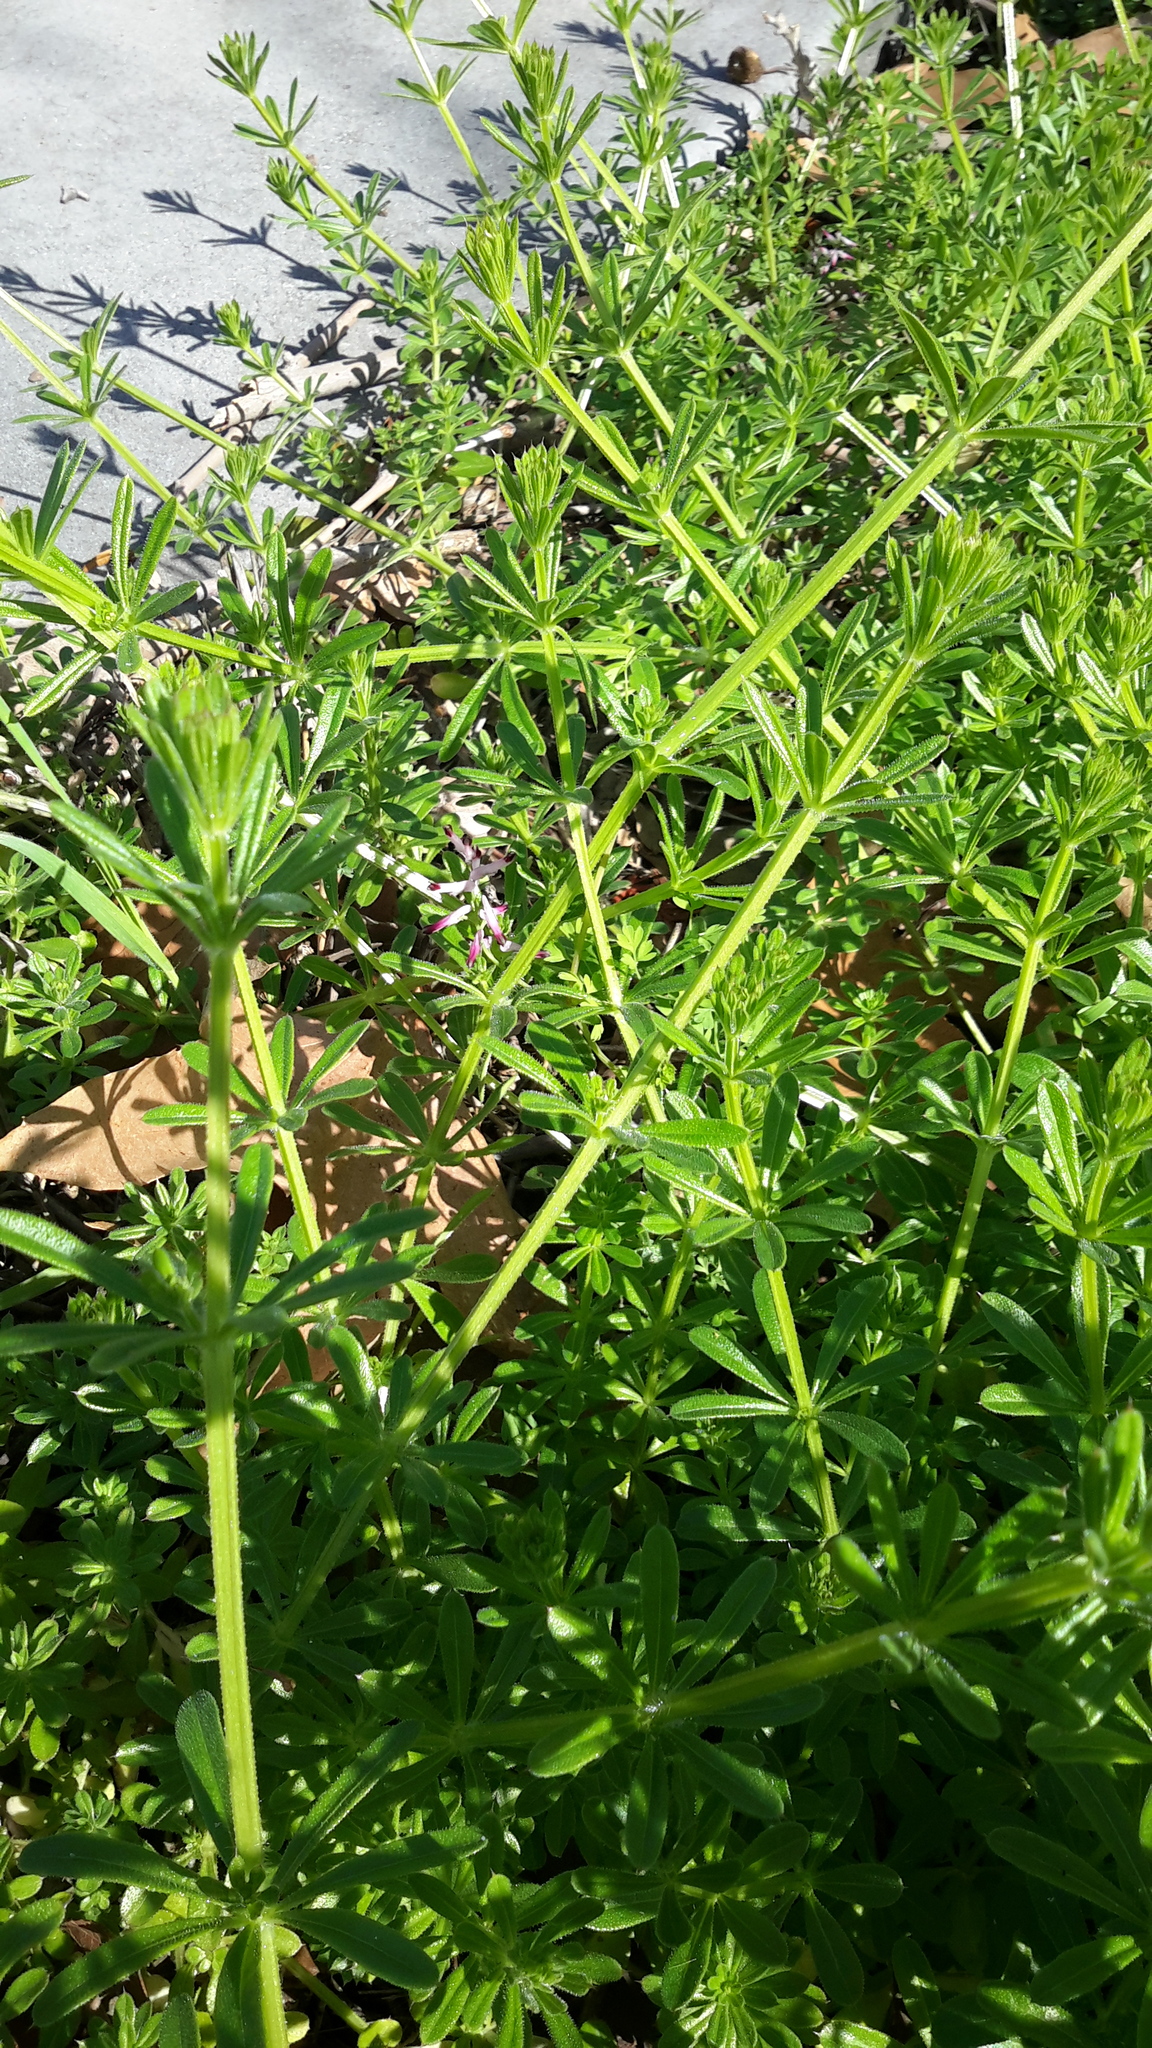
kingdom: Plantae
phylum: Tracheophyta
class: Magnoliopsida
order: Gentianales
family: Rubiaceae
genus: Galium
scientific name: Galium aparine
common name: Cleavers
